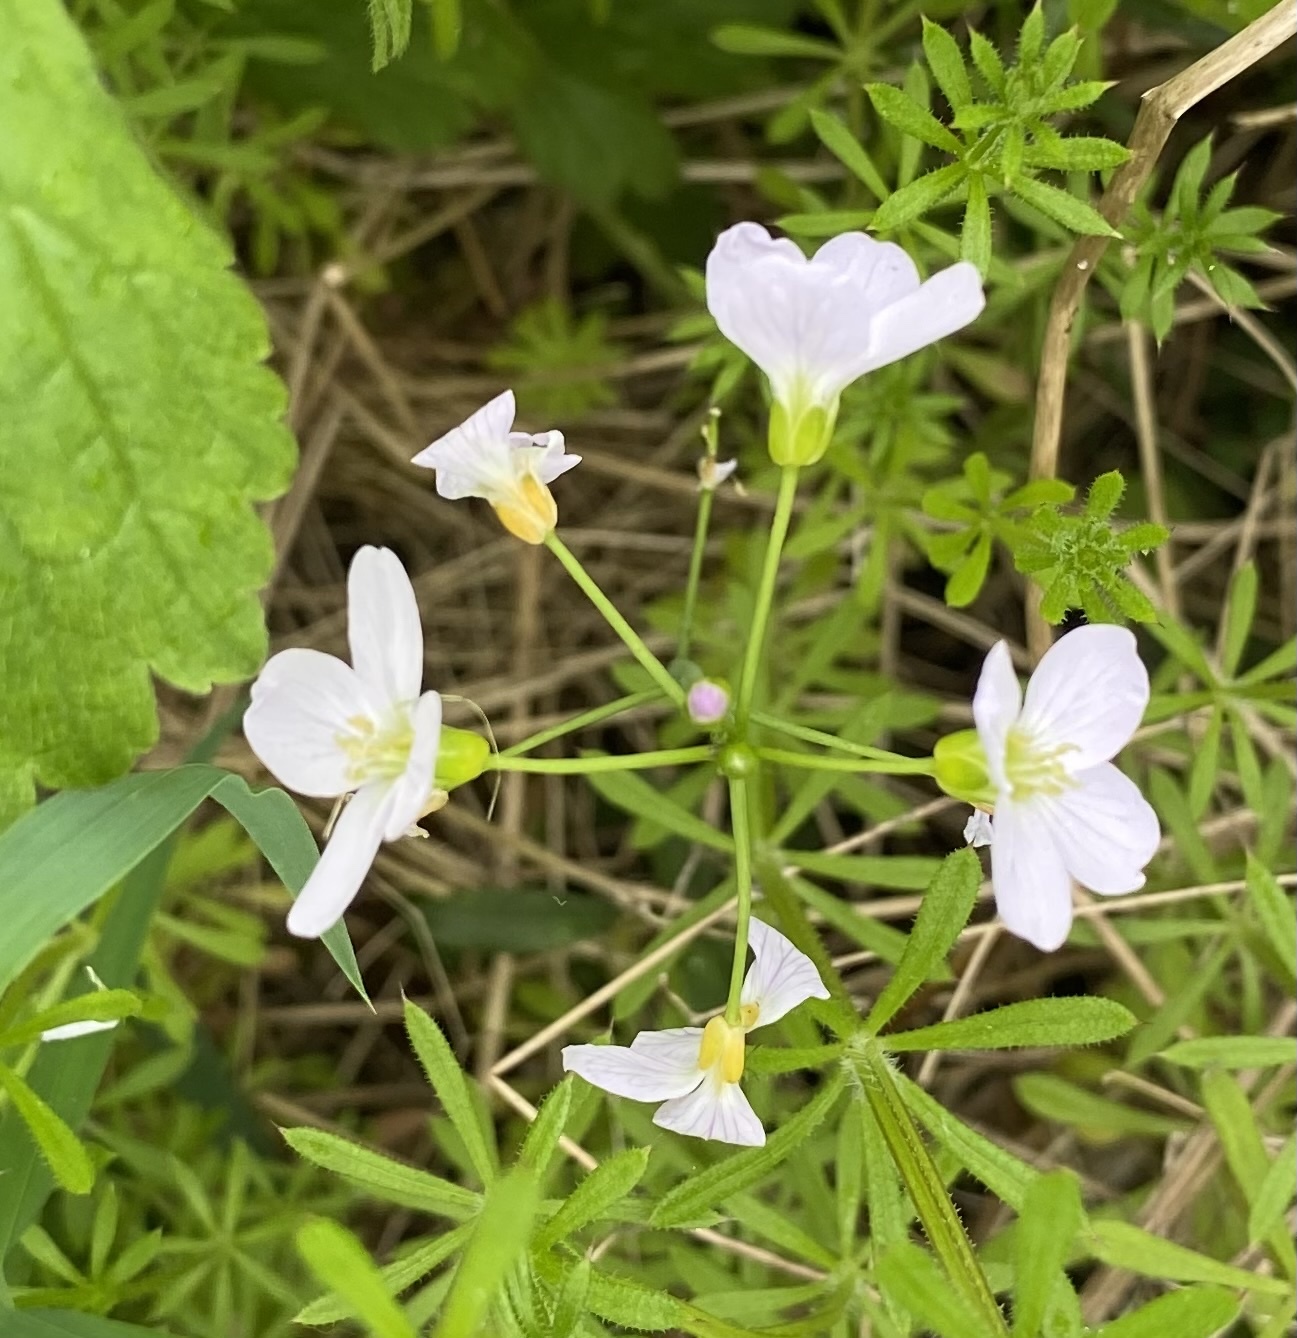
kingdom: Plantae
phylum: Tracheophyta
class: Magnoliopsida
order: Brassicales
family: Brassicaceae
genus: Cardamine
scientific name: Cardamine pratensis
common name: Cuckoo flower
